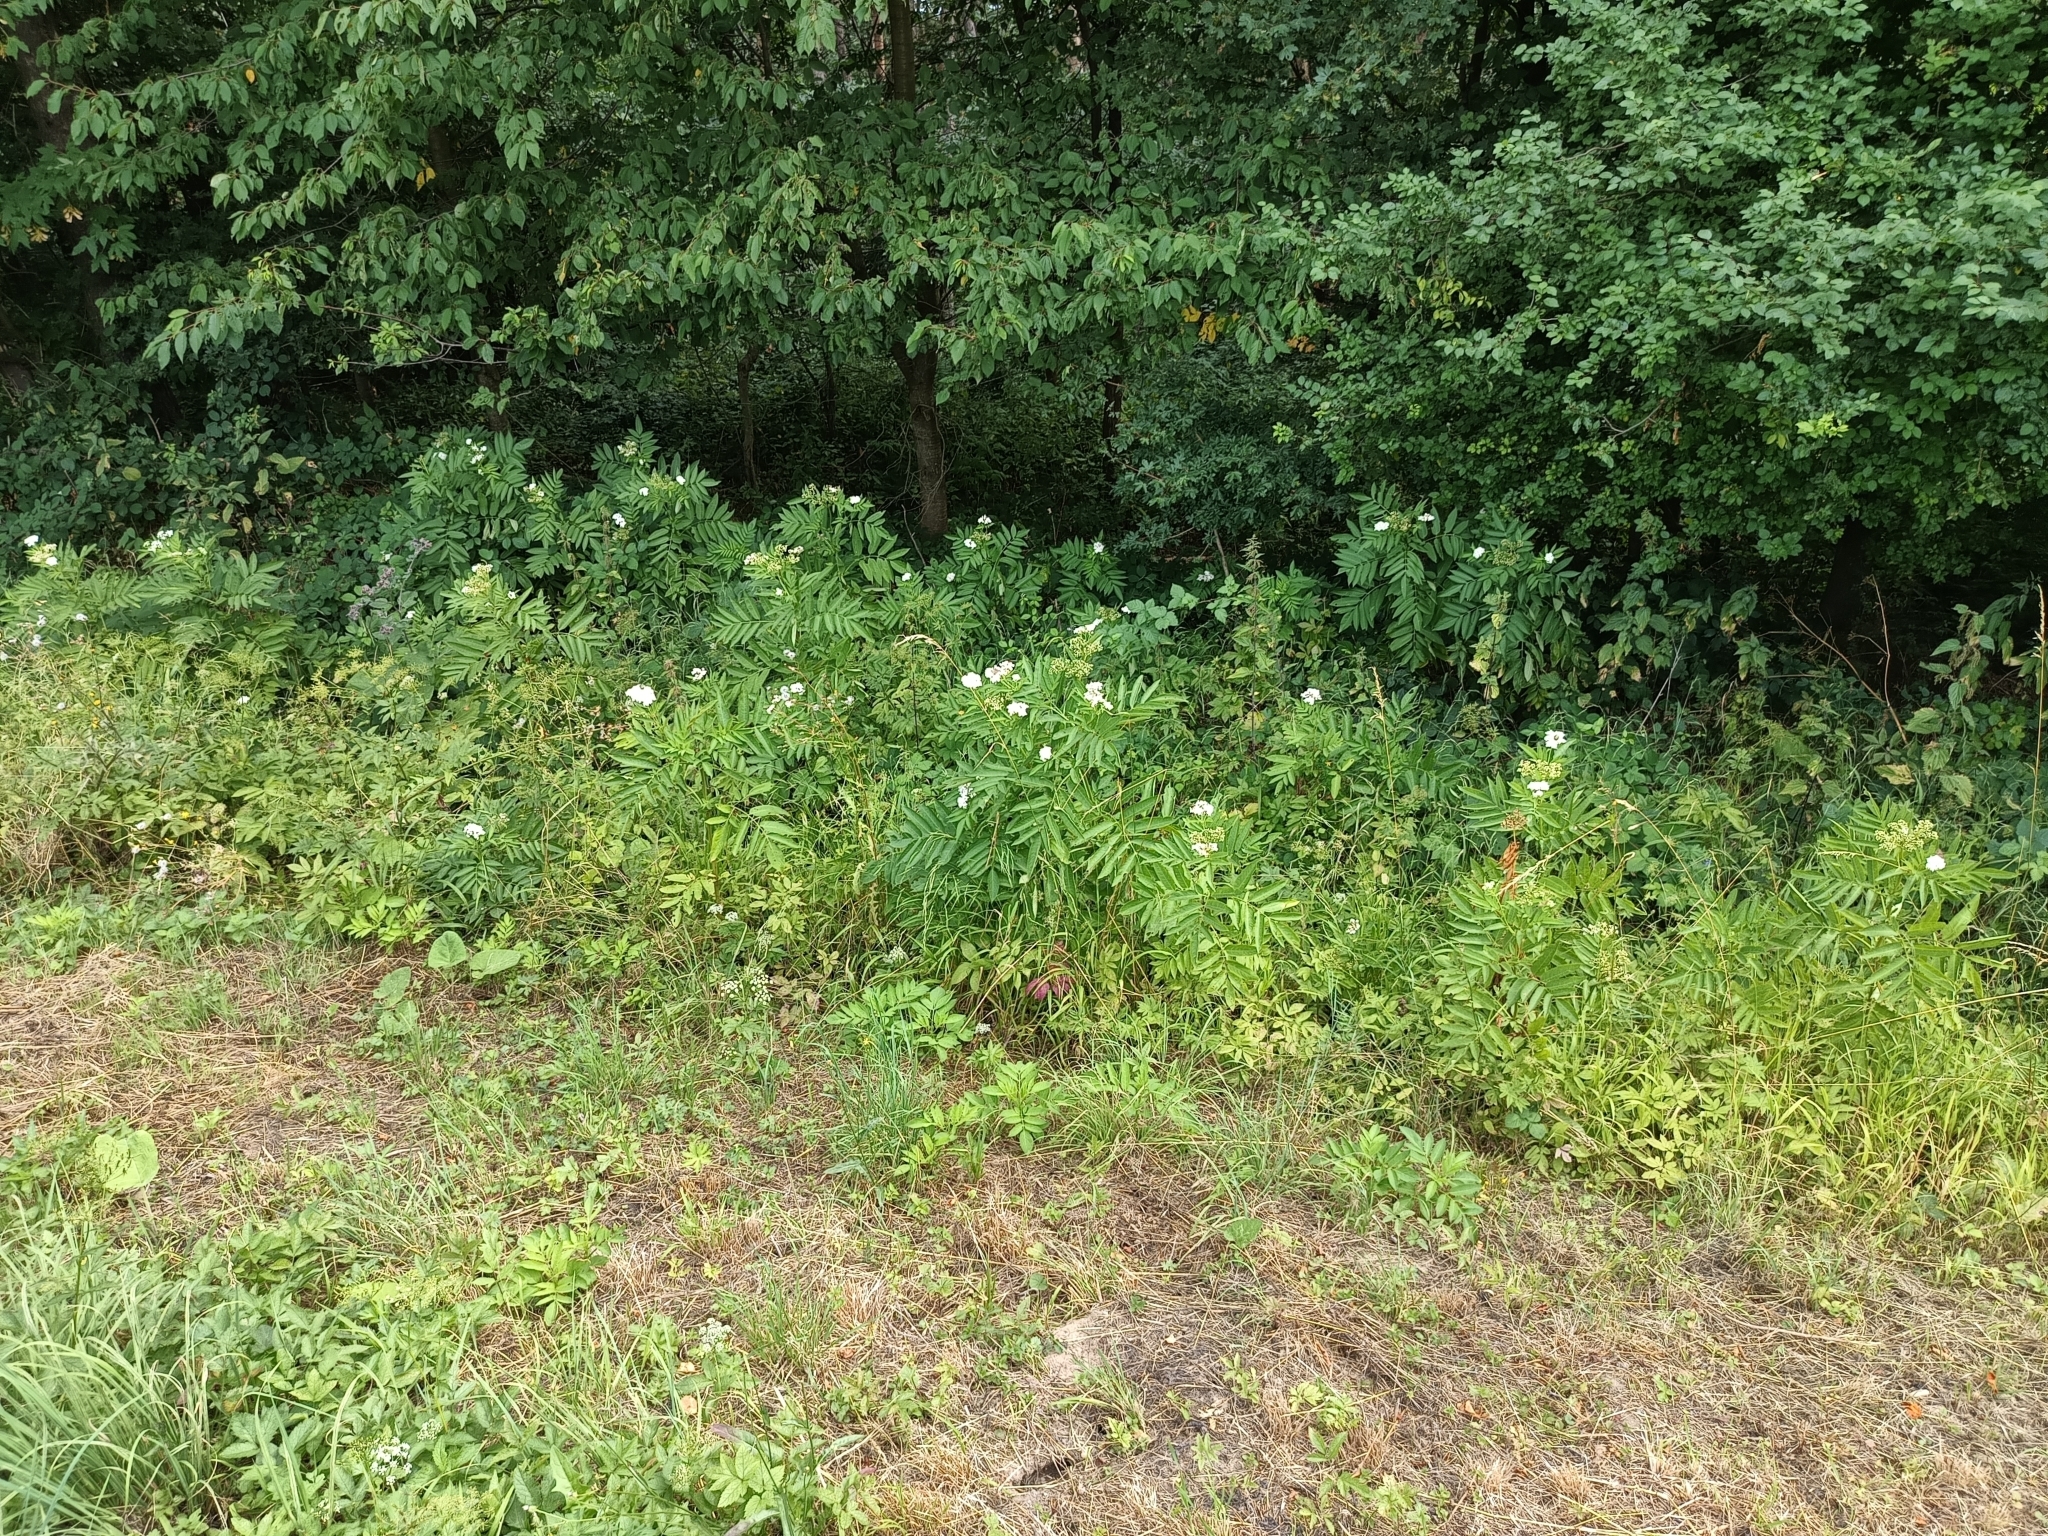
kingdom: Plantae
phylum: Tracheophyta
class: Magnoliopsida
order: Dipsacales
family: Viburnaceae
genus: Sambucus
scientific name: Sambucus ebulus
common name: Dwarf elder
